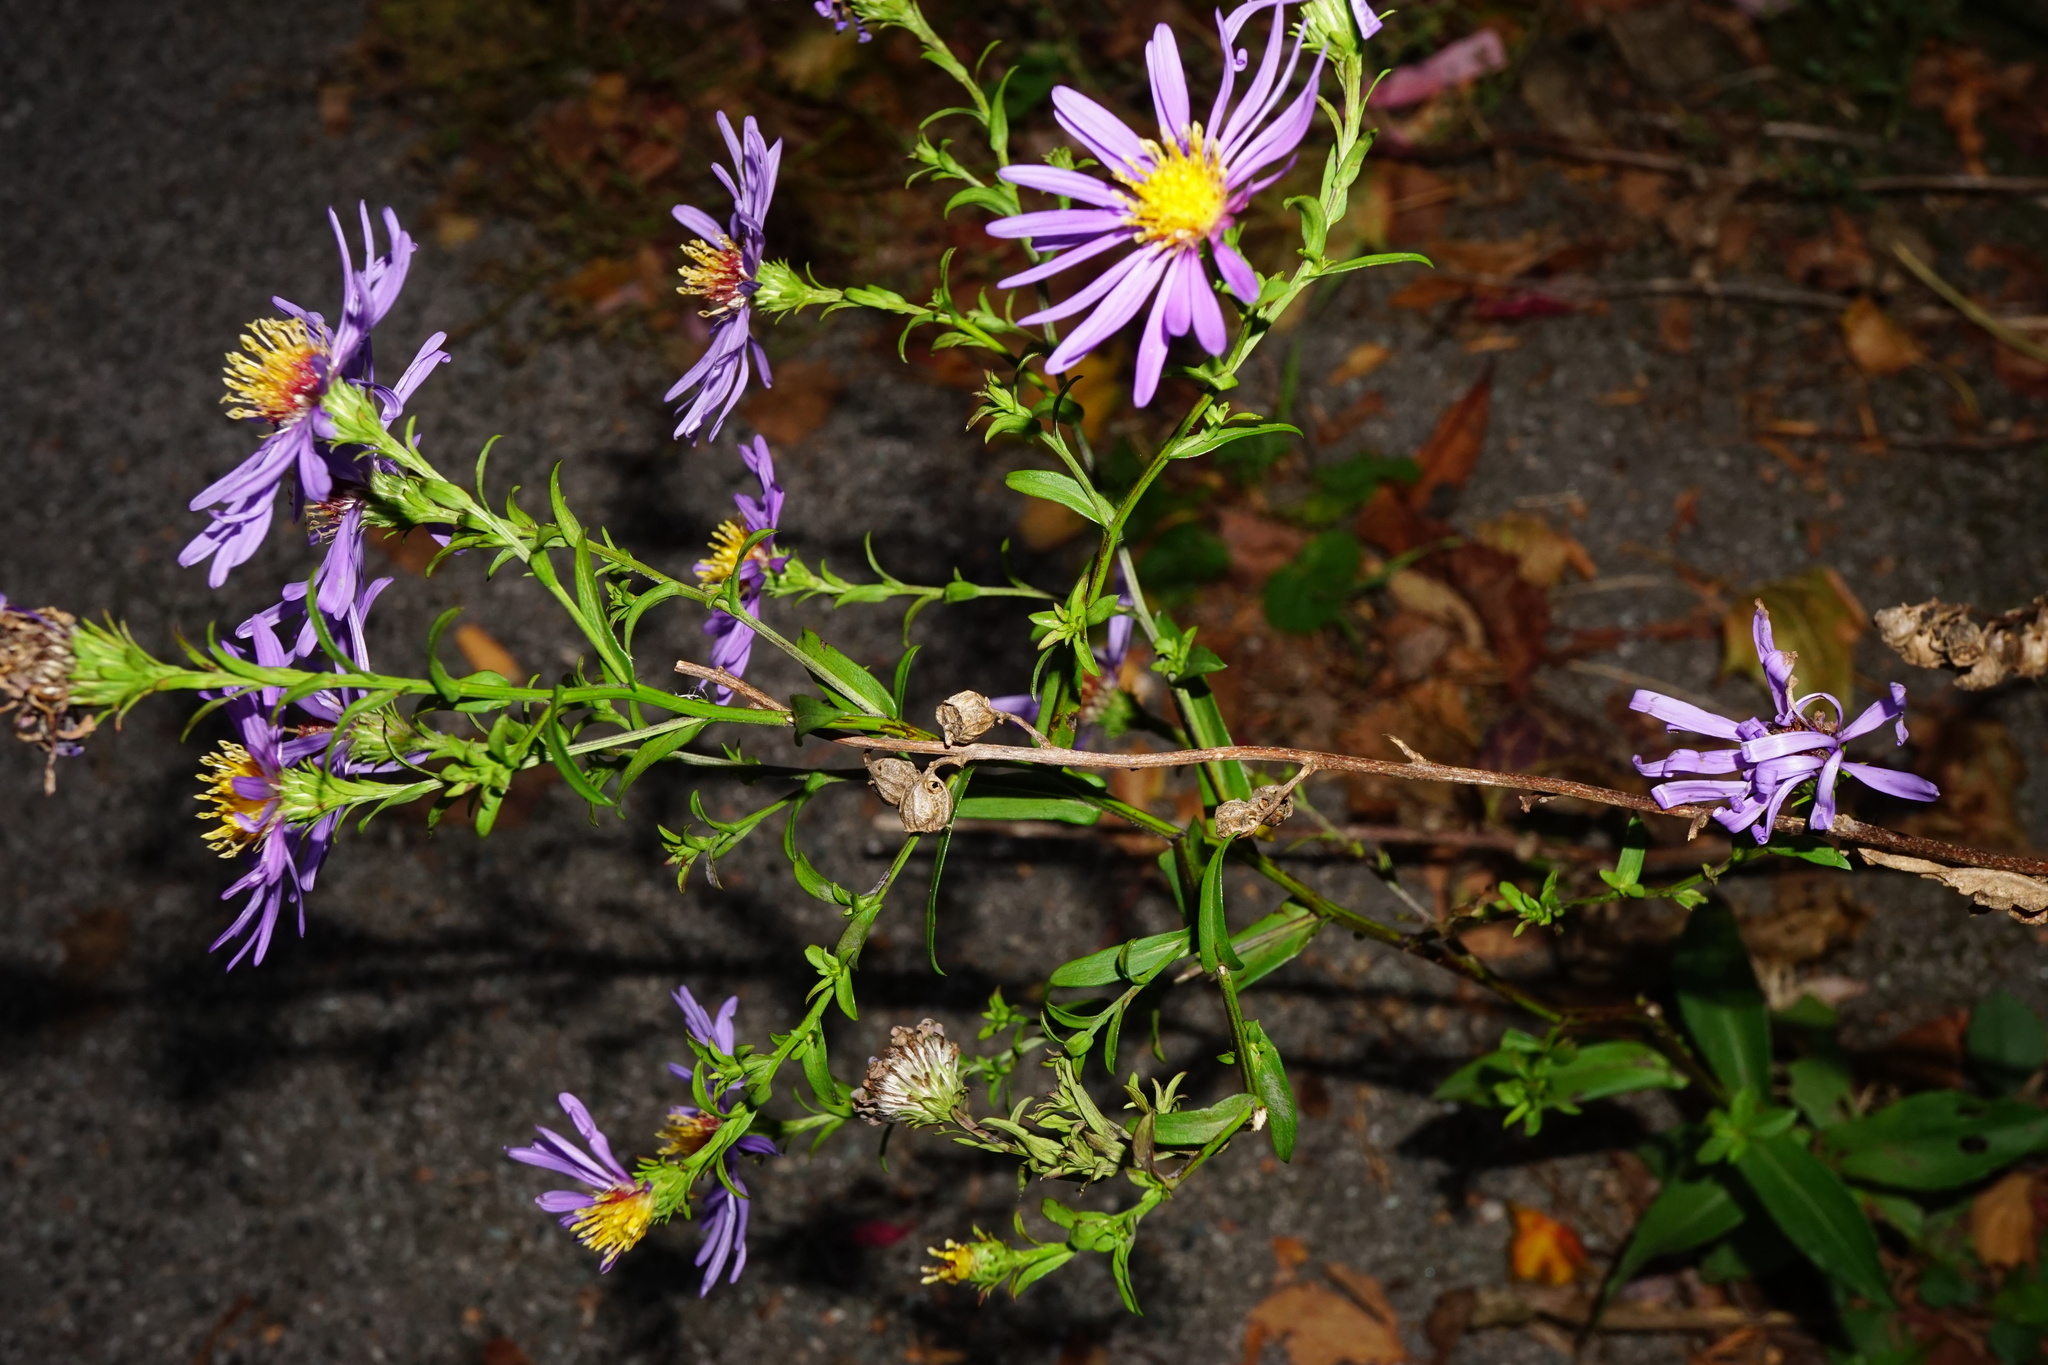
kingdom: Plantae
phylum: Tracheophyta
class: Magnoliopsida
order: Asterales
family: Asteraceae
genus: Symphyotrichum
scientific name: Symphyotrichum novi-belgii
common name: Michaelmas daisy
